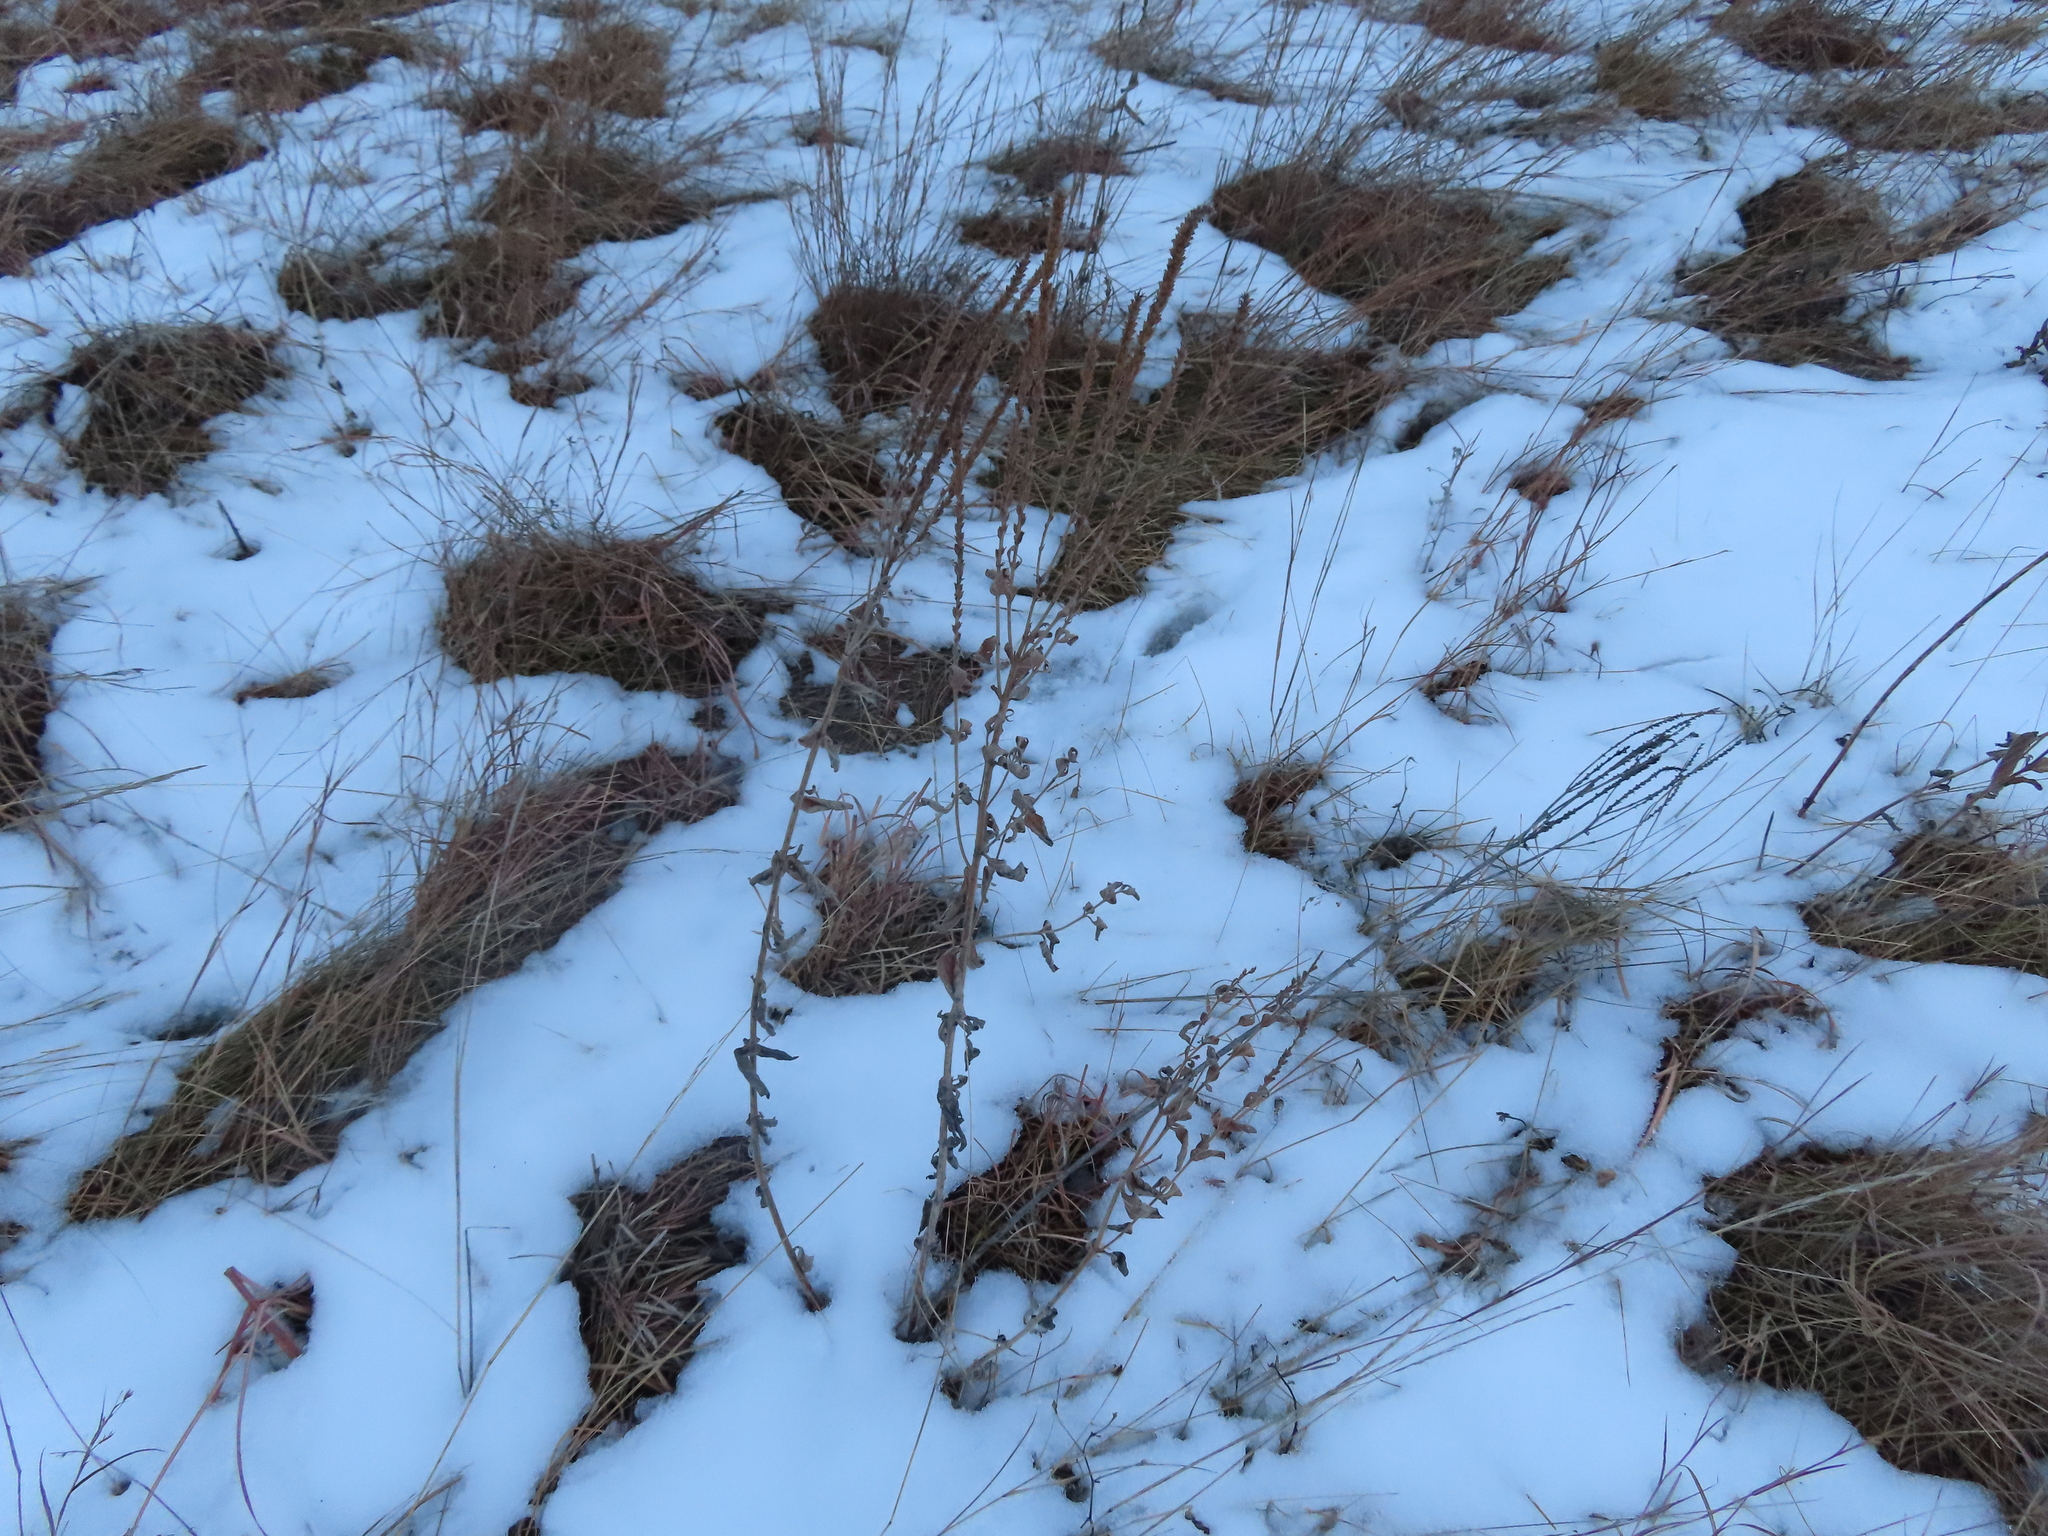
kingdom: Plantae
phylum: Tracheophyta
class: Magnoliopsida
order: Lamiales
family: Verbenaceae
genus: Verbena
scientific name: Verbena stricta
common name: Hoary vervain
